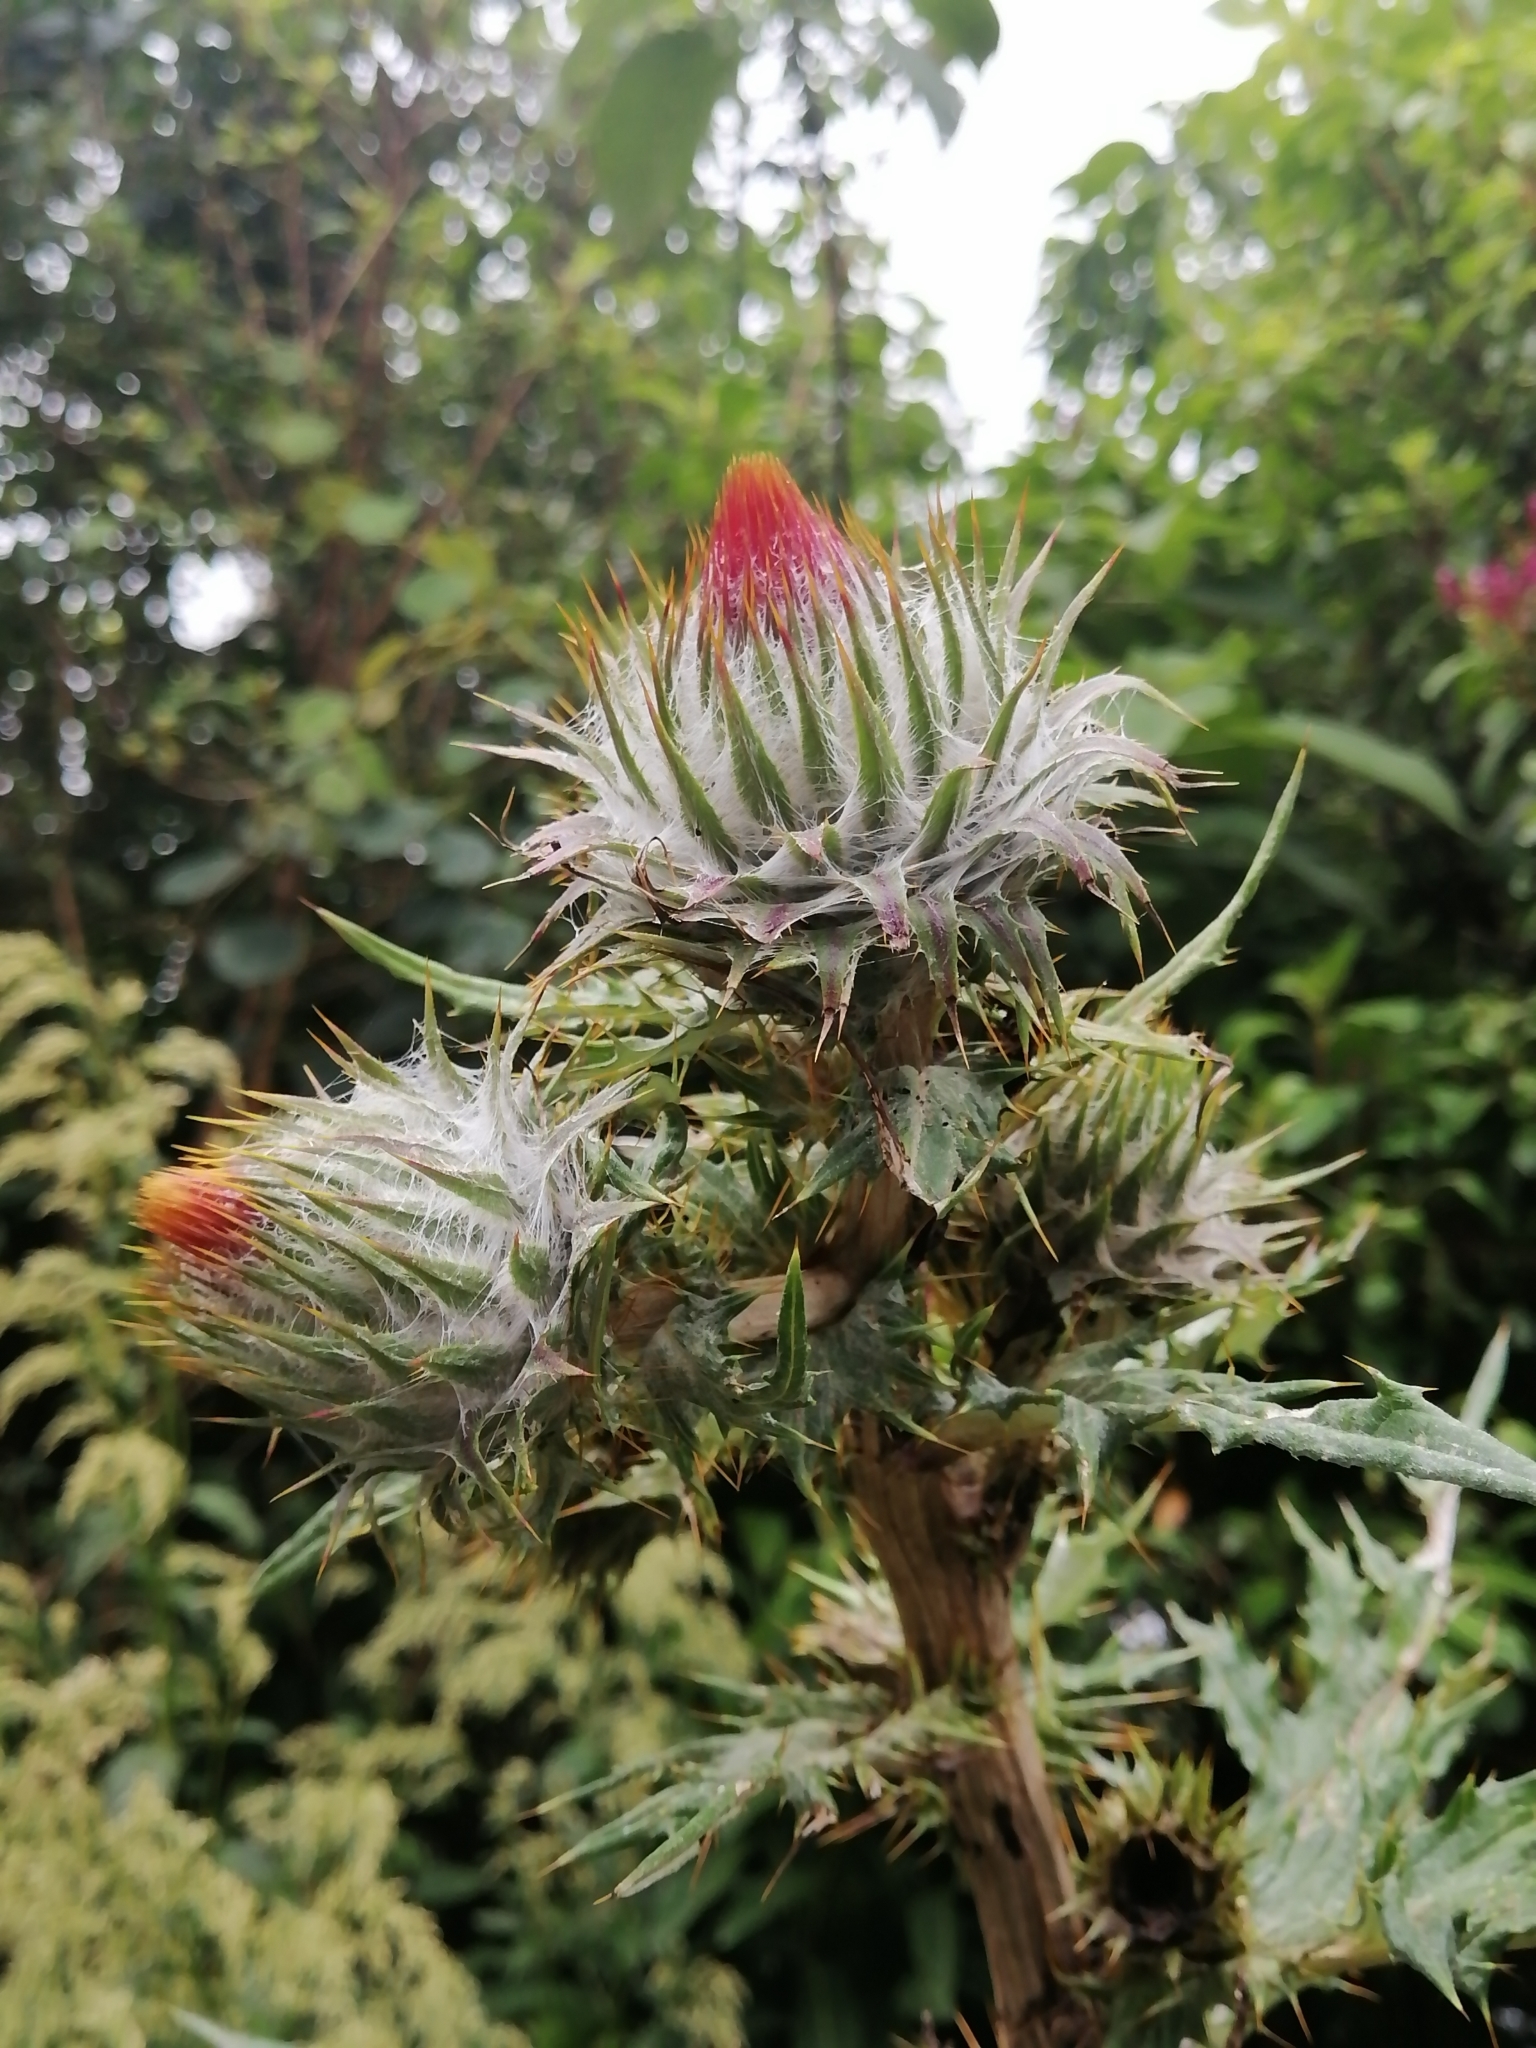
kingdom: Plantae
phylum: Tracheophyta
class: Magnoliopsida
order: Asterales
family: Asteraceae
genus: Cirsium
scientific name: Cirsium subcoriaceum
